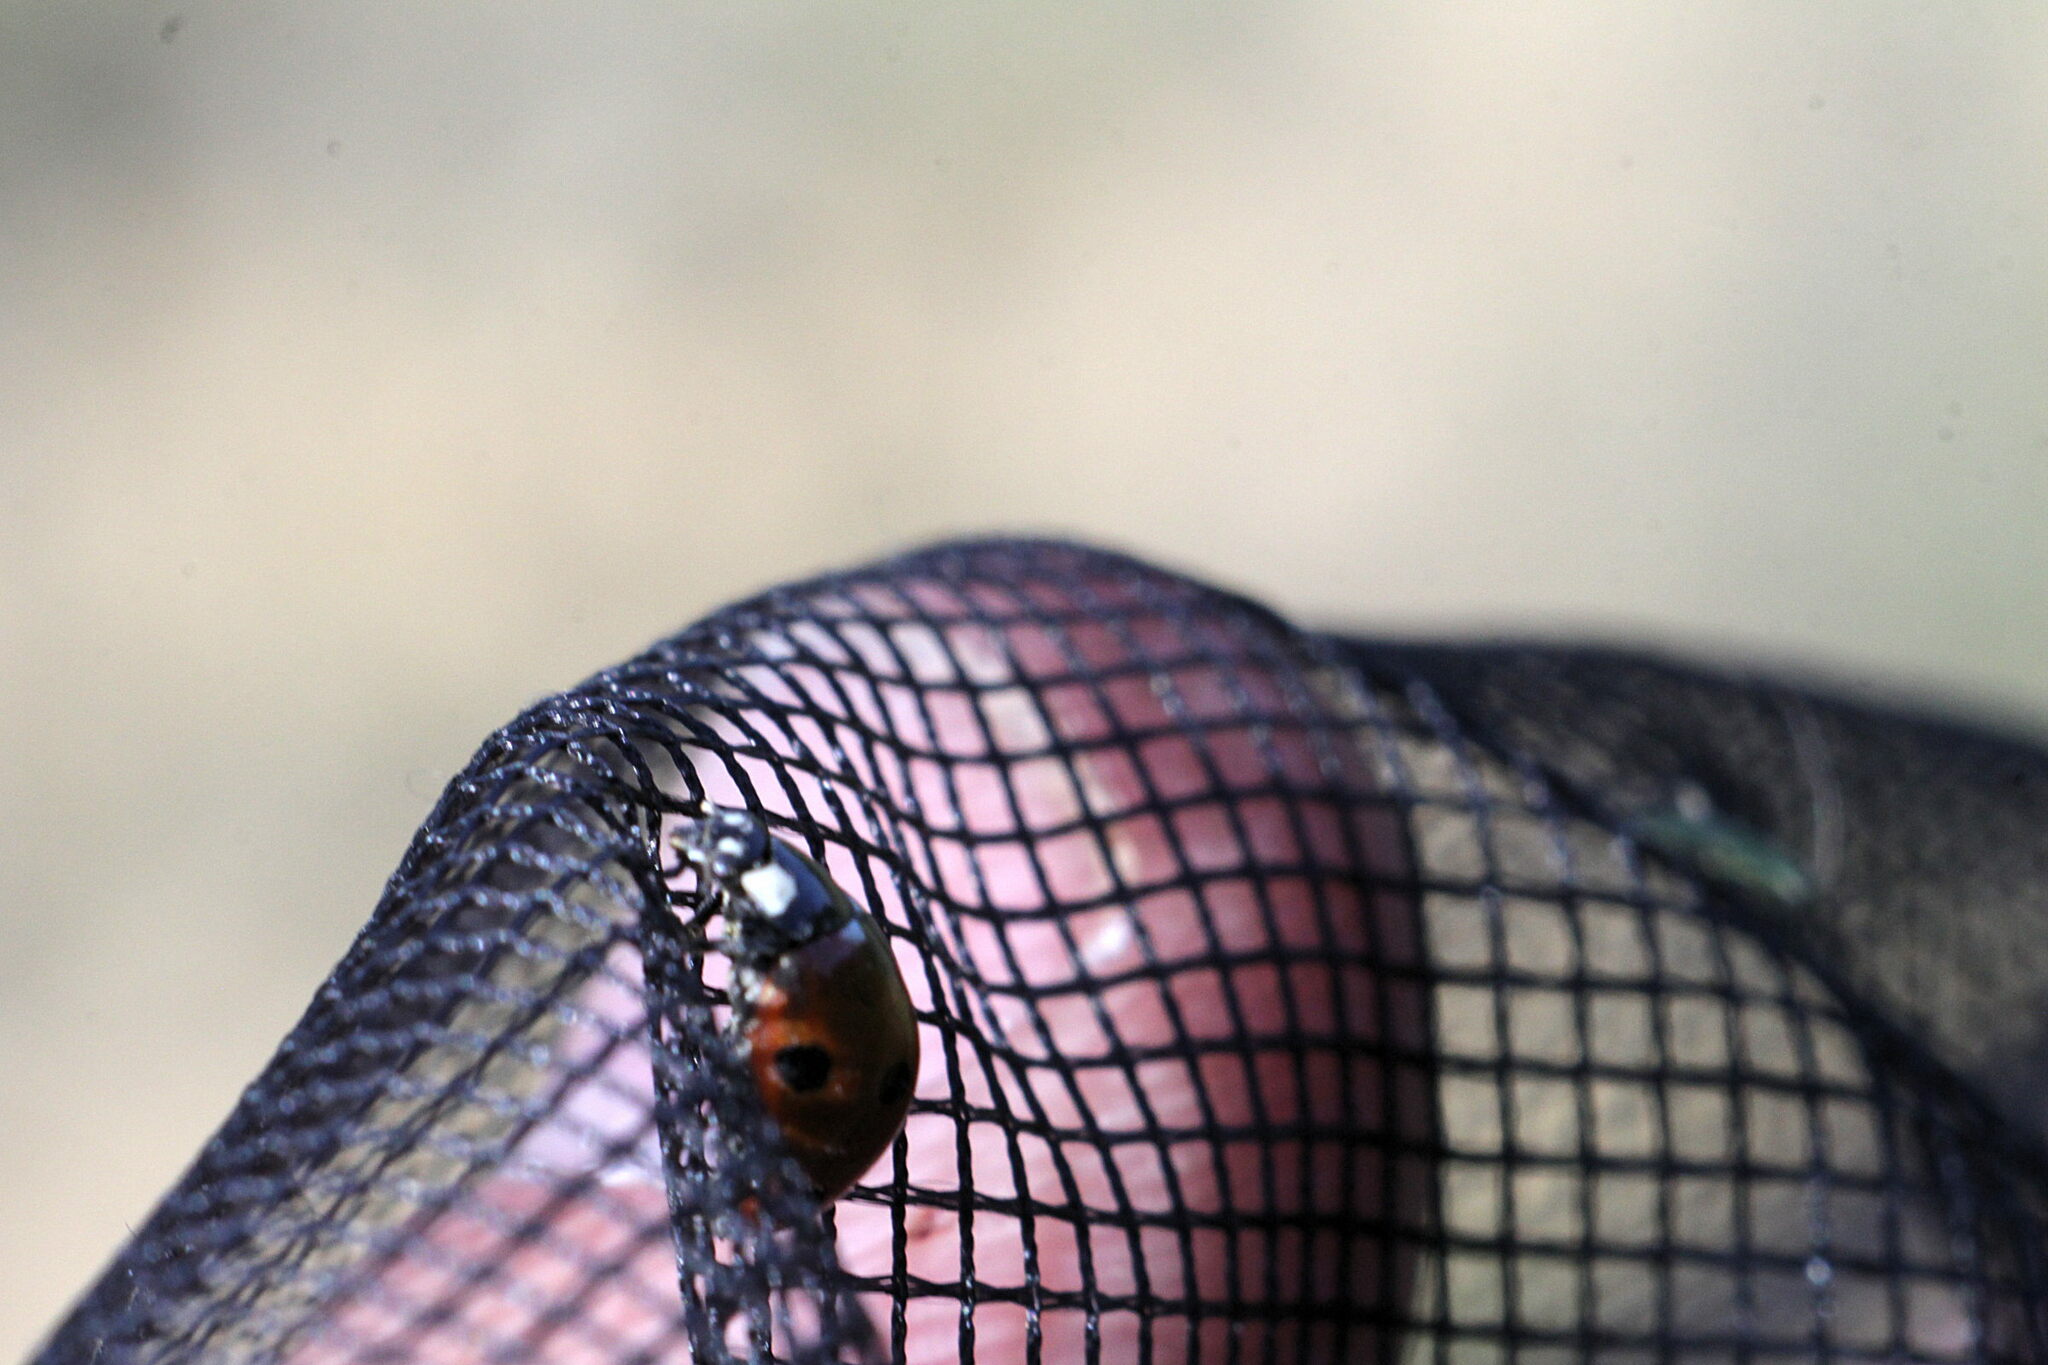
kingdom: Animalia
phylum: Arthropoda
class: Insecta
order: Coleoptera
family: Coccinellidae
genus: Coccinella
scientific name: Coccinella septempunctata
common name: Sevenspotted lady beetle
